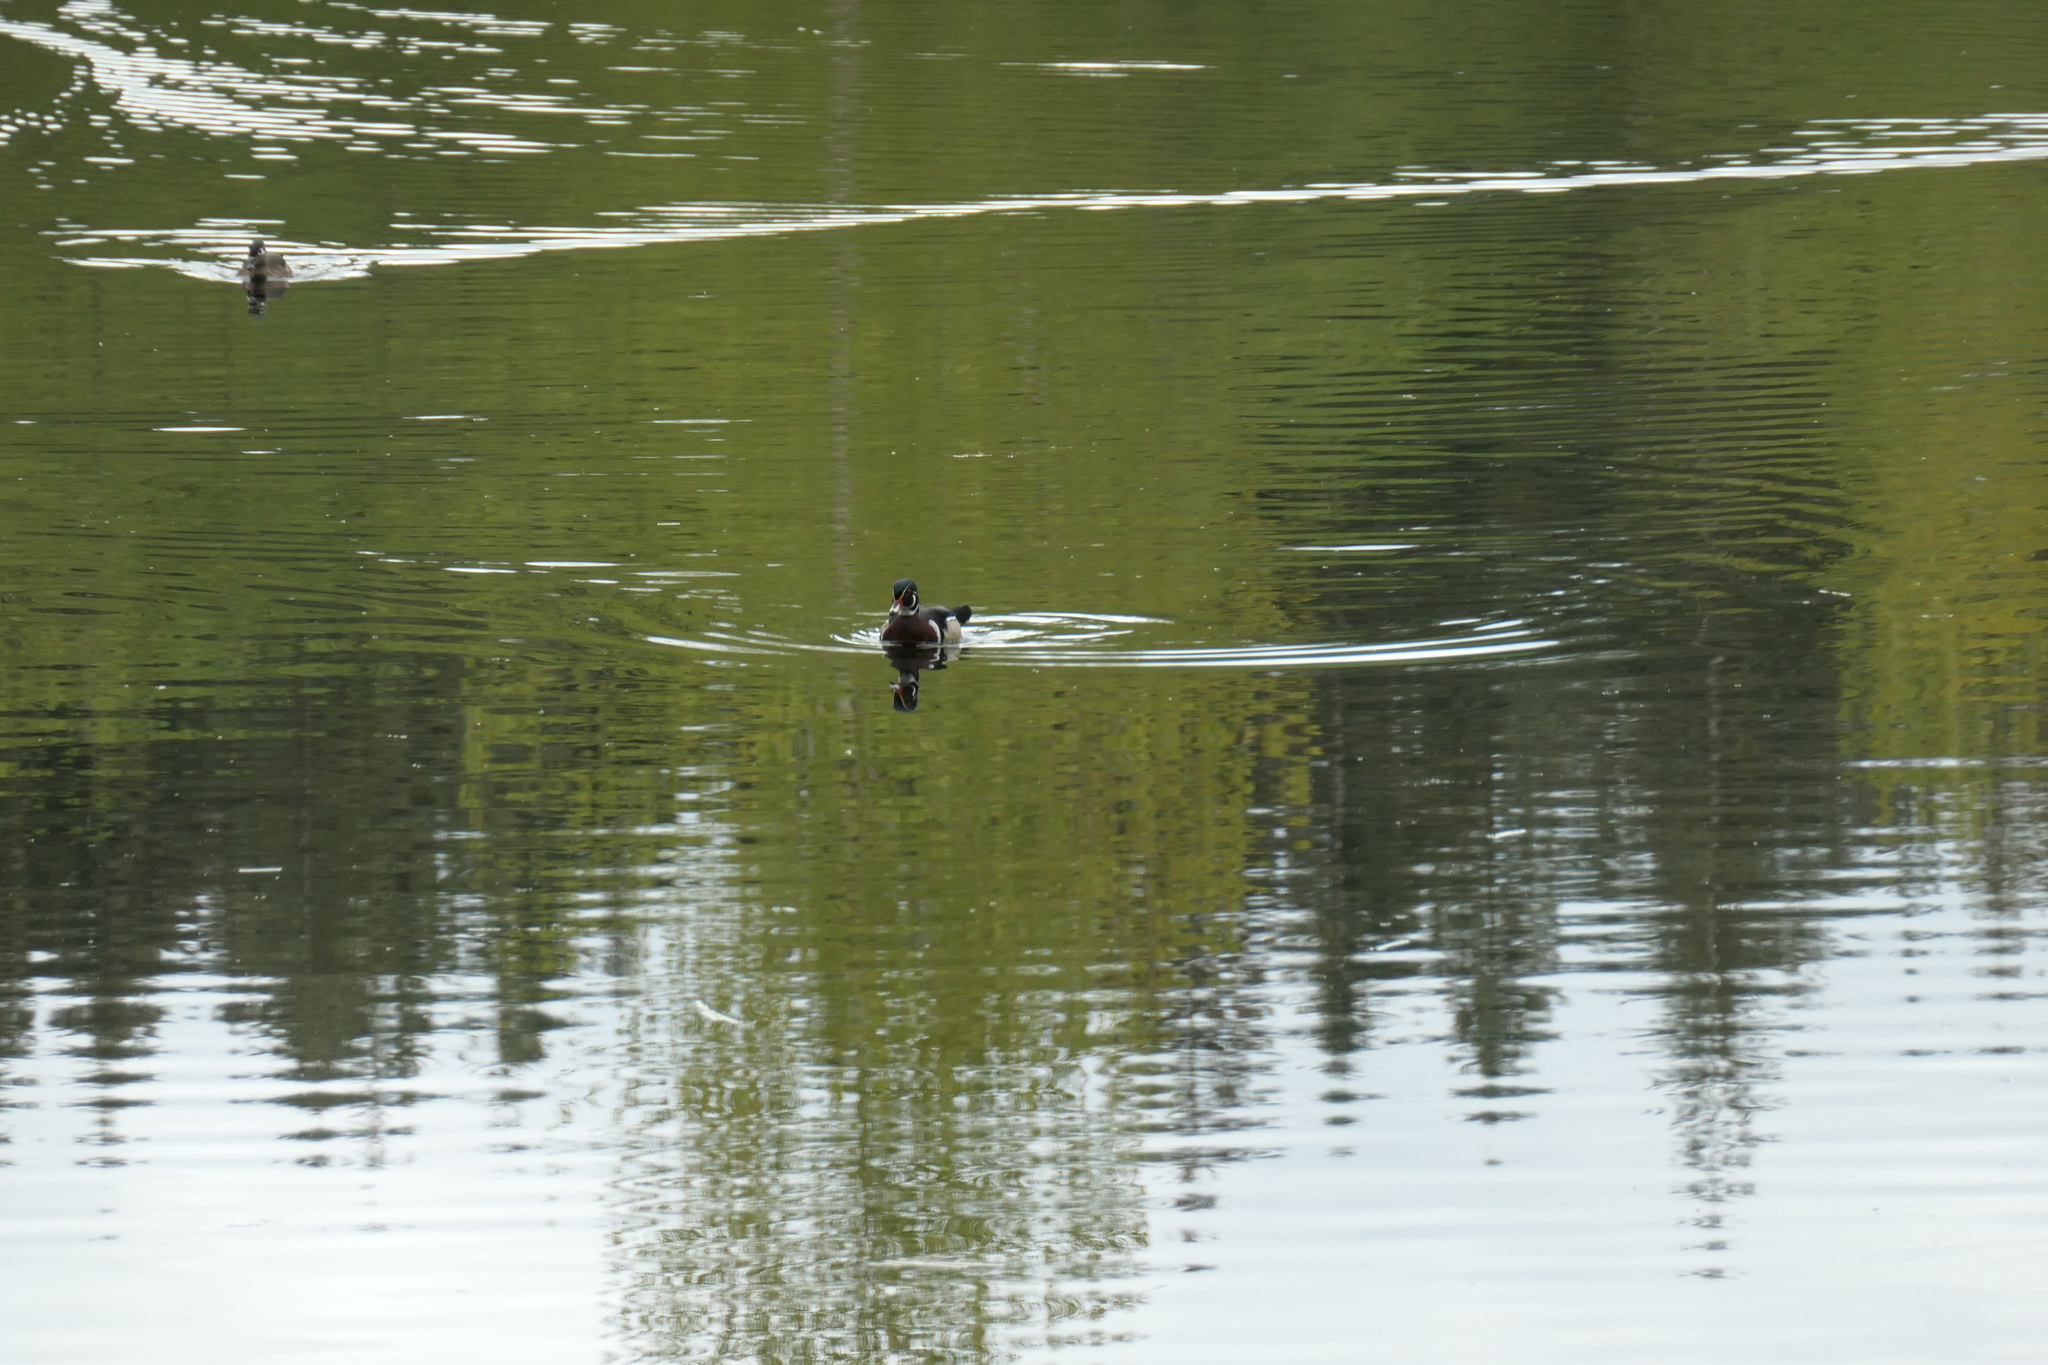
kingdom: Animalia
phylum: Chordata
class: Aves
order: Anseriformes
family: Anatidae
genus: Aix
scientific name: Aix sponsa
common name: Wood duck
